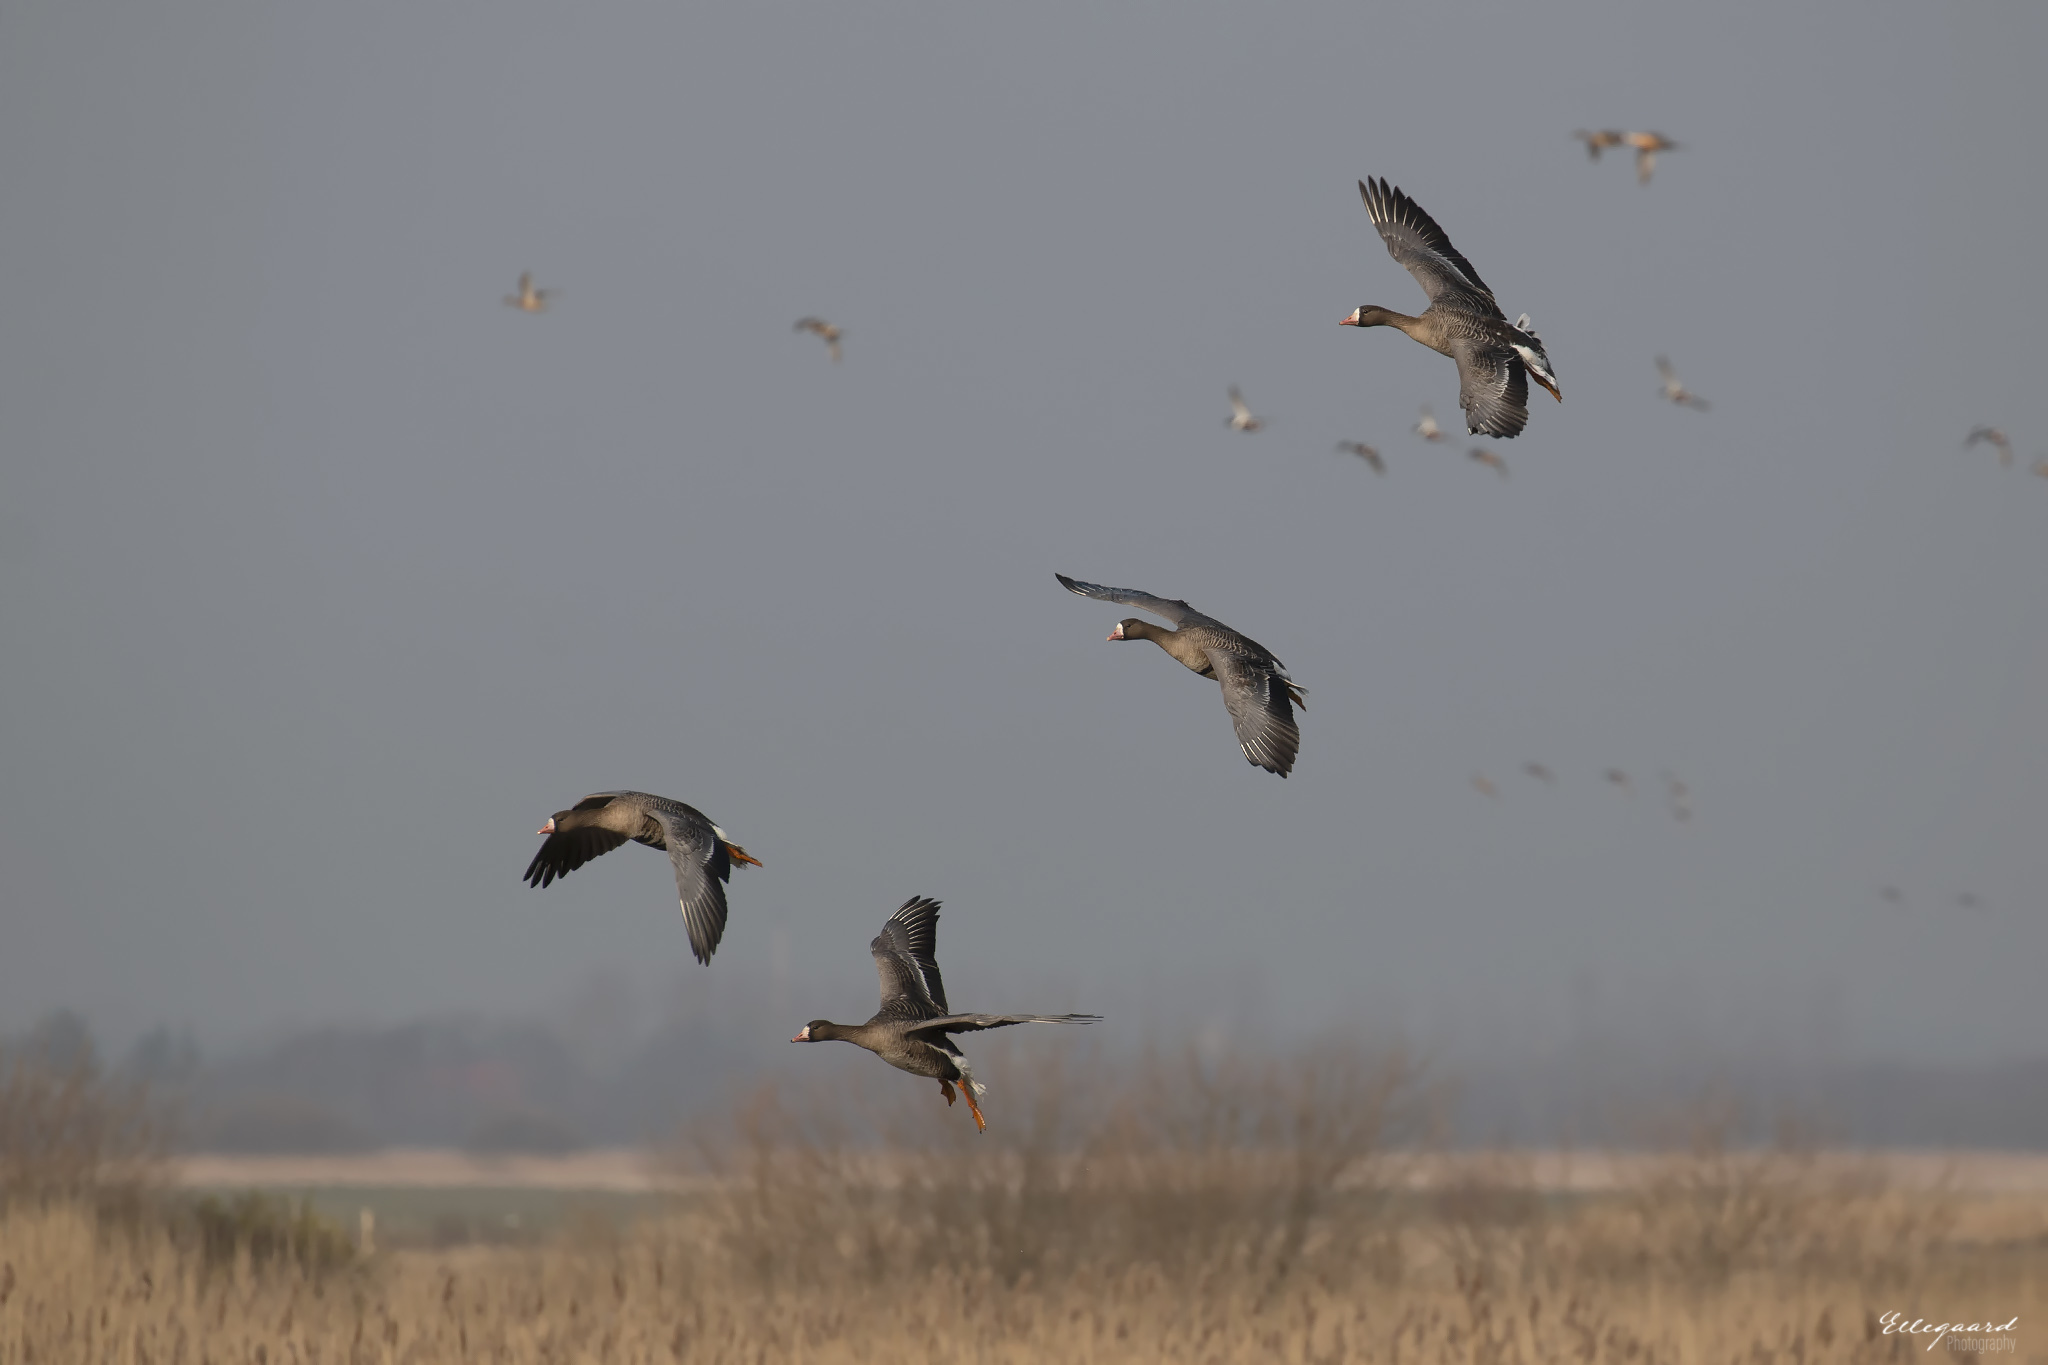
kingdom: Animalia
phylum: Chordata
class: Aves
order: Anseriformes
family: Anatidae
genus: Anser
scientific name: Anser albifrons
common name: Greater white-fronted goose
